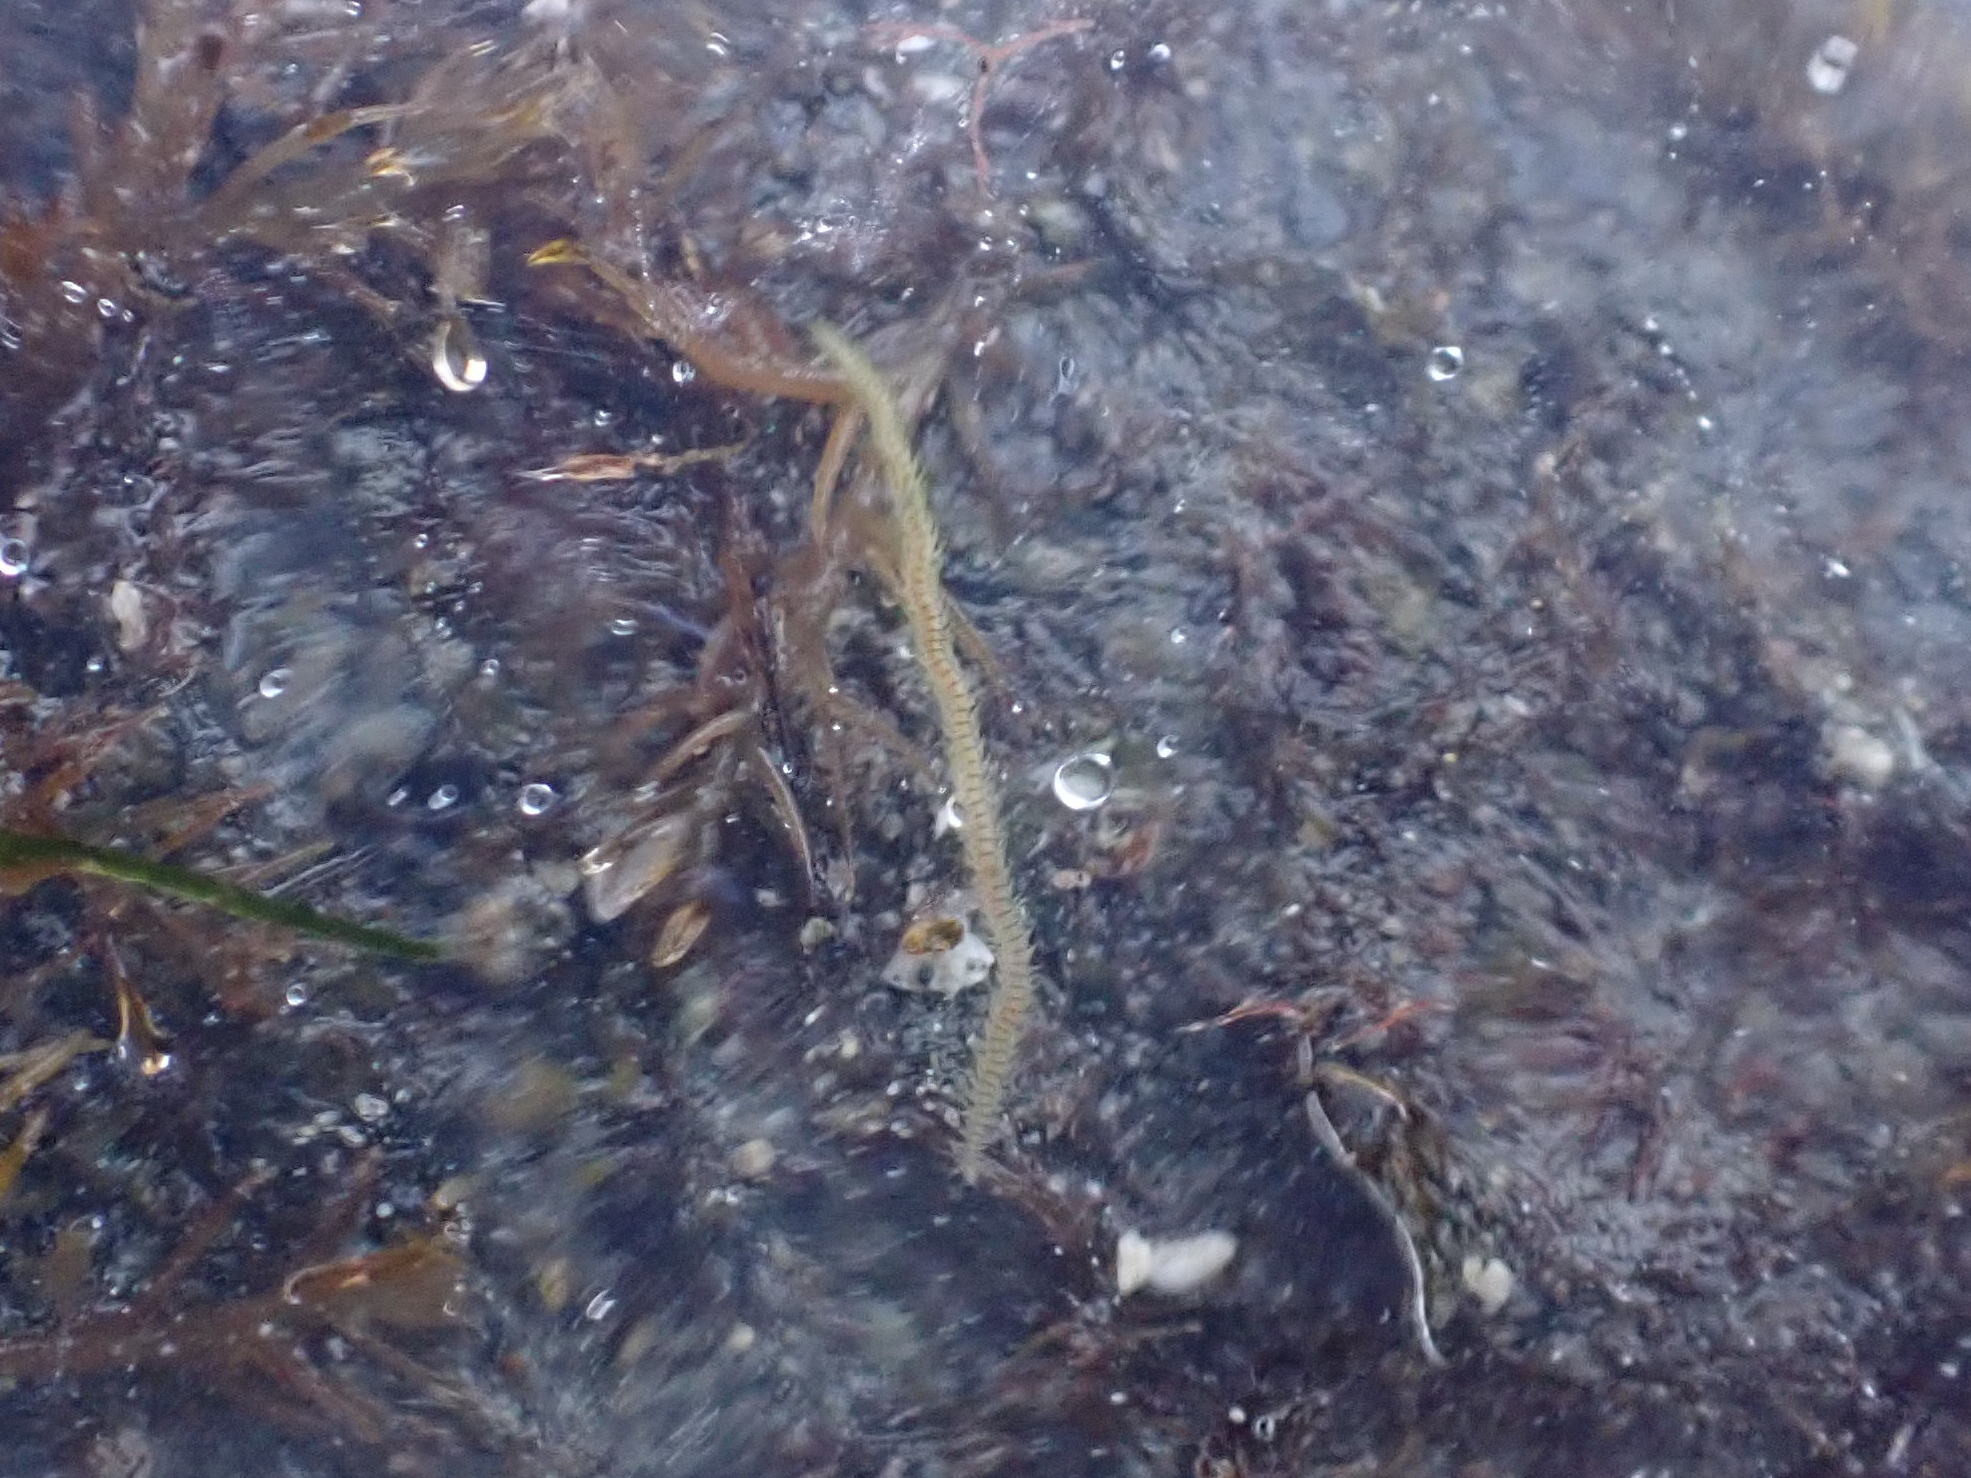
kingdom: Animalia
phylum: Annelida
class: Polychaeta
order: Phyllodocida
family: Phyllodocidae
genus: Eulalia
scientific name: Eulalia quadrioculata
